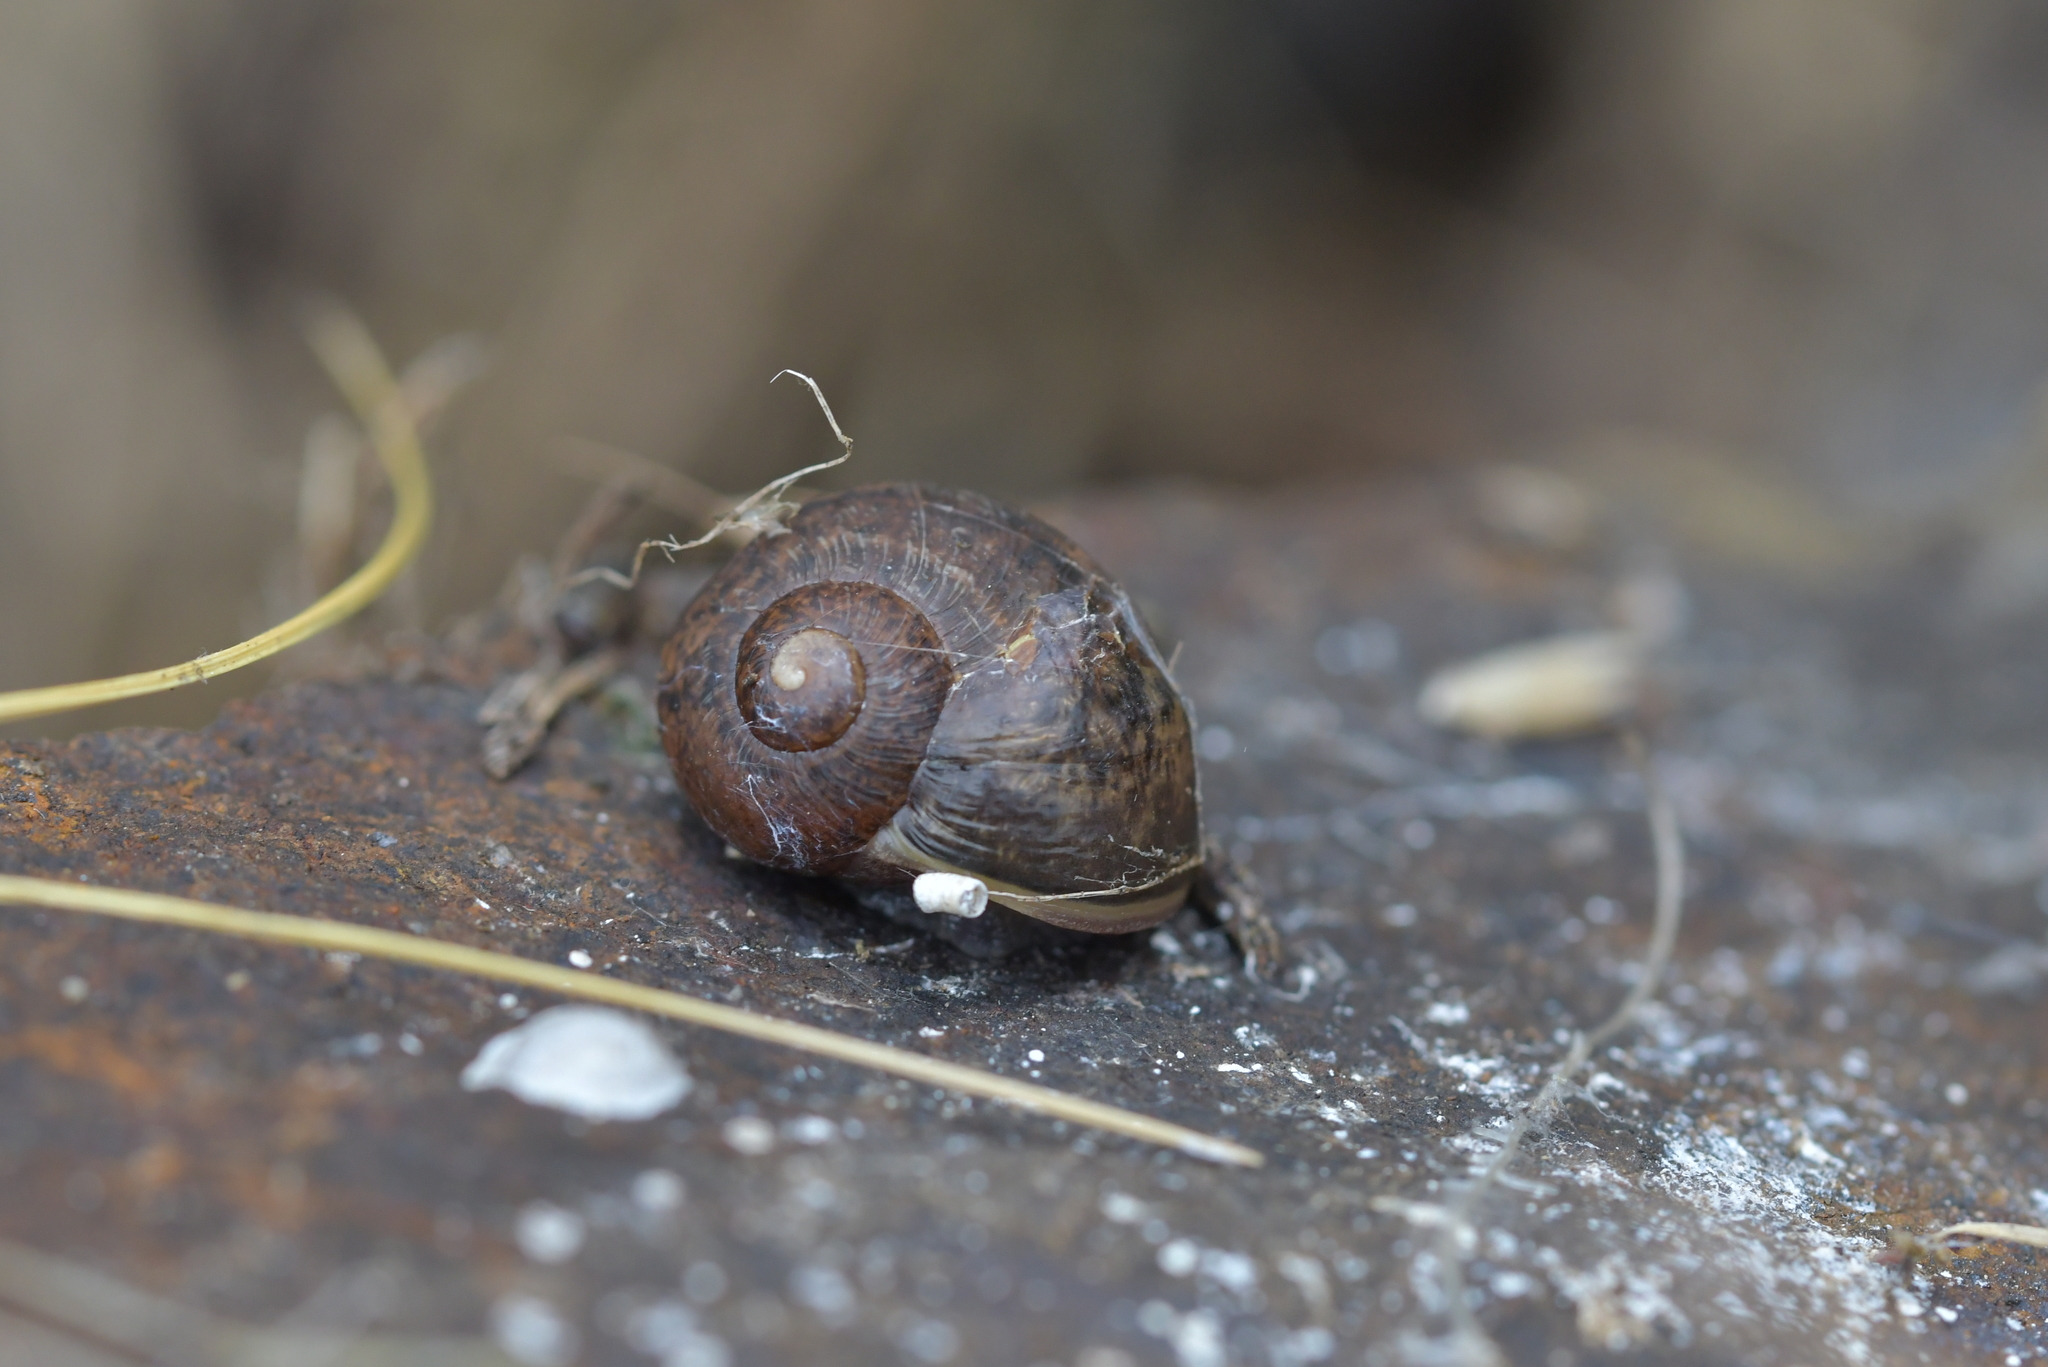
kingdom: Animalia
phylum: Mollusca
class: Gastropoda
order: Stylommatophora
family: Helicidae
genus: Cornu
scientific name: Cornu aspersum
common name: Brown garden snail
